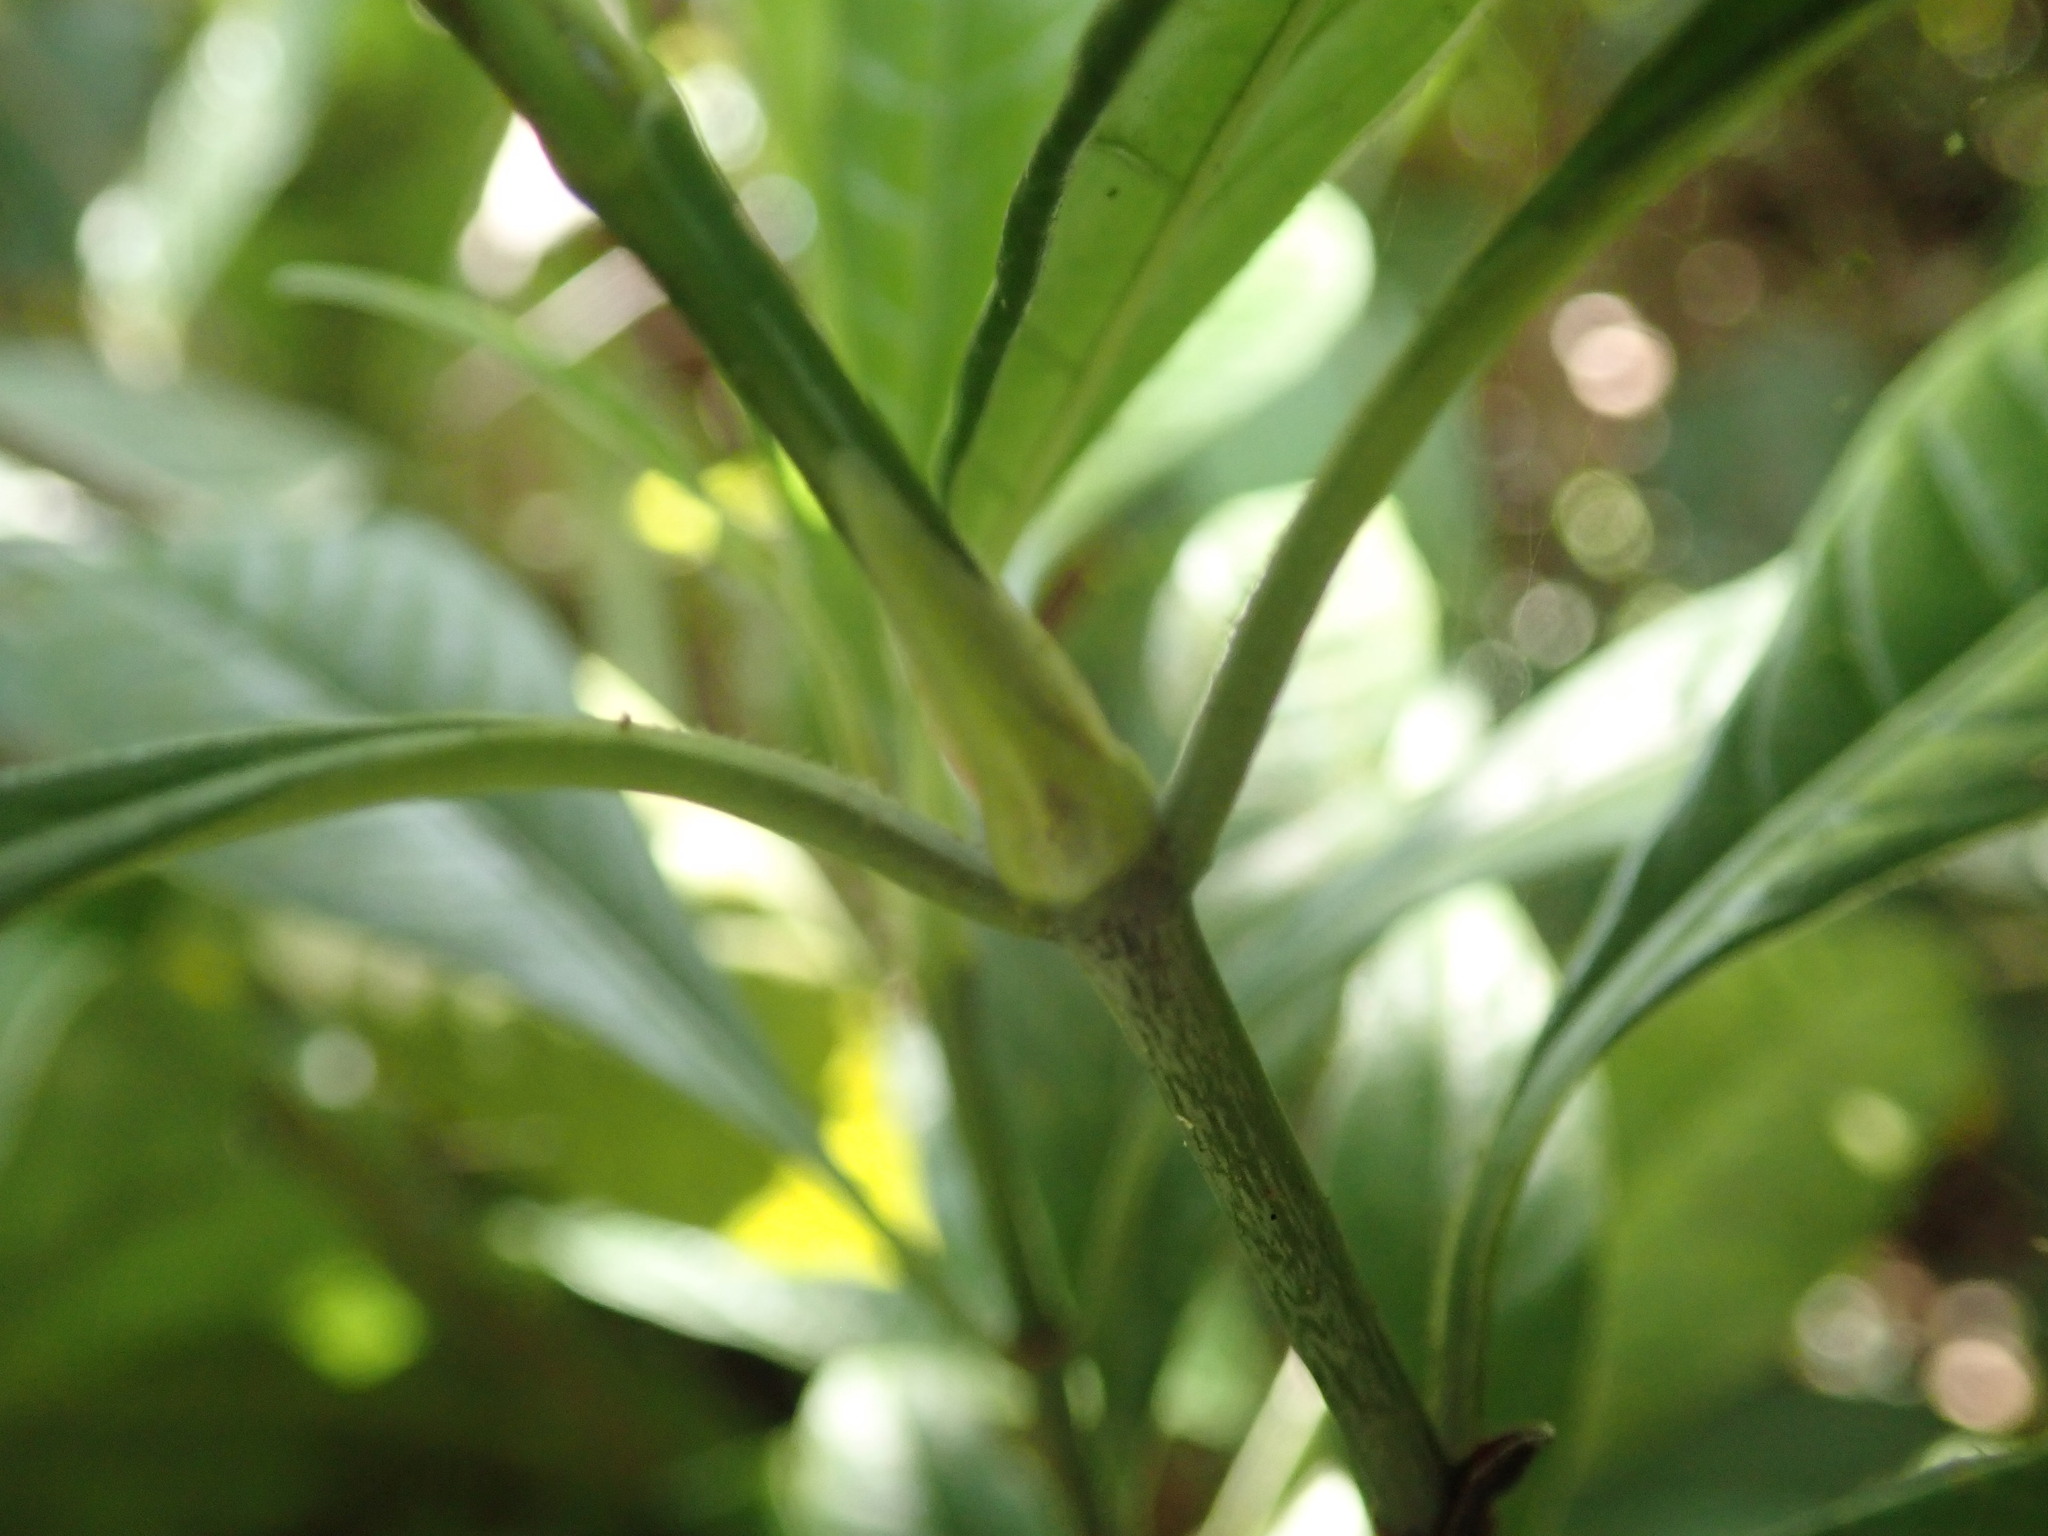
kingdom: Plantae
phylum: Tracheophyta
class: Magnoliopsida
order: Gentianales
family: Rubiaceae
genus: Psychotria
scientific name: Psychotria marginata
